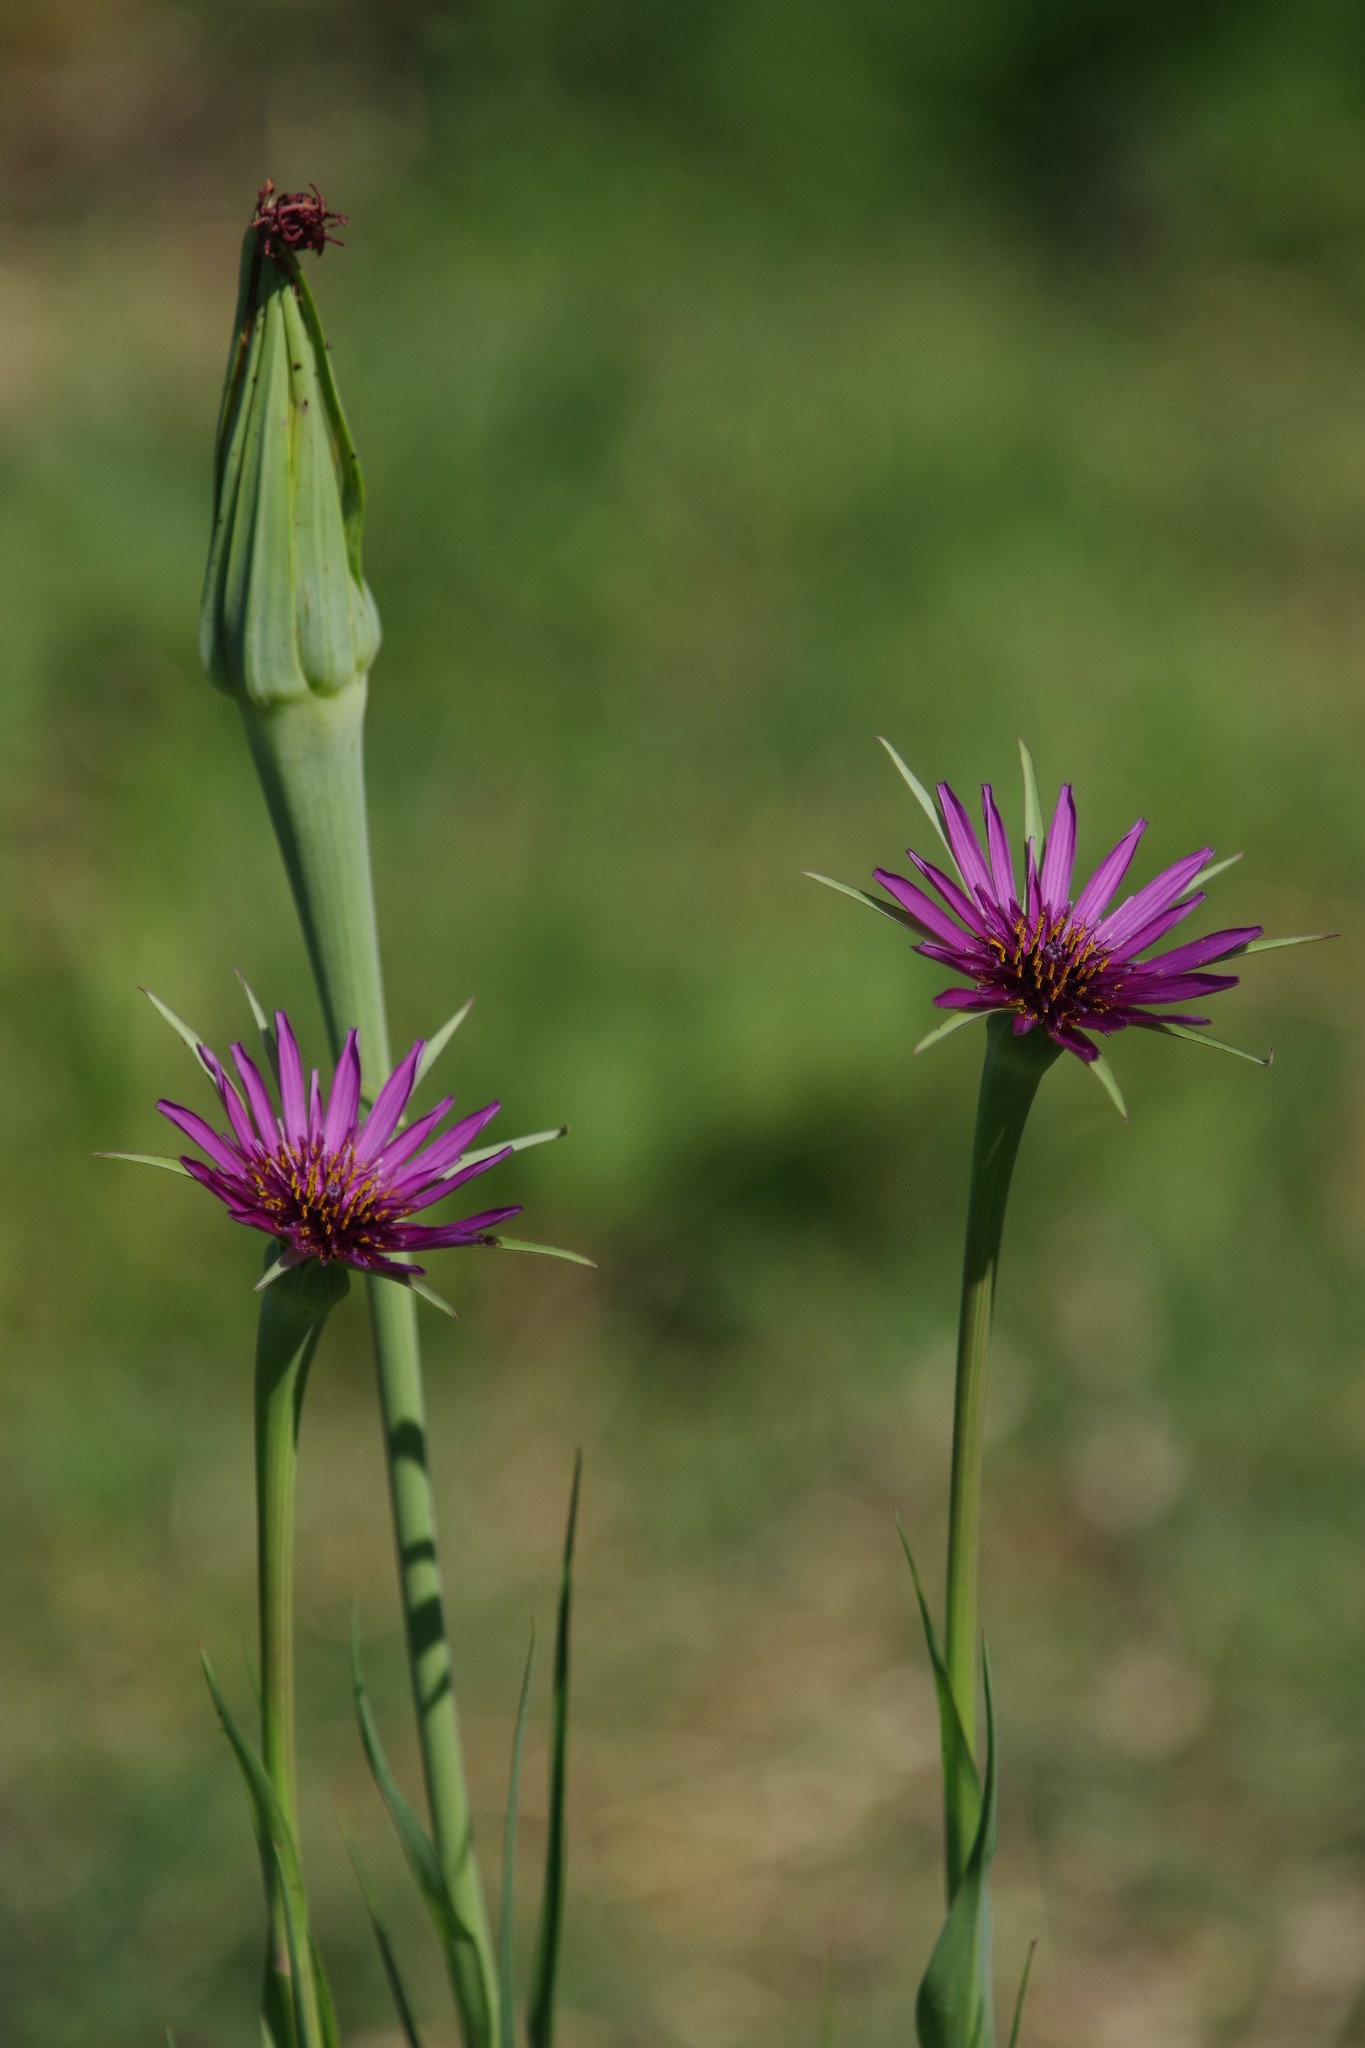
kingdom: Plantae
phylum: Tracheophyta
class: Magnoliopsida
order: Asterales
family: Asteraceae
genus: Tragopogon
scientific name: Tragopogon porrifolius
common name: Salsify
